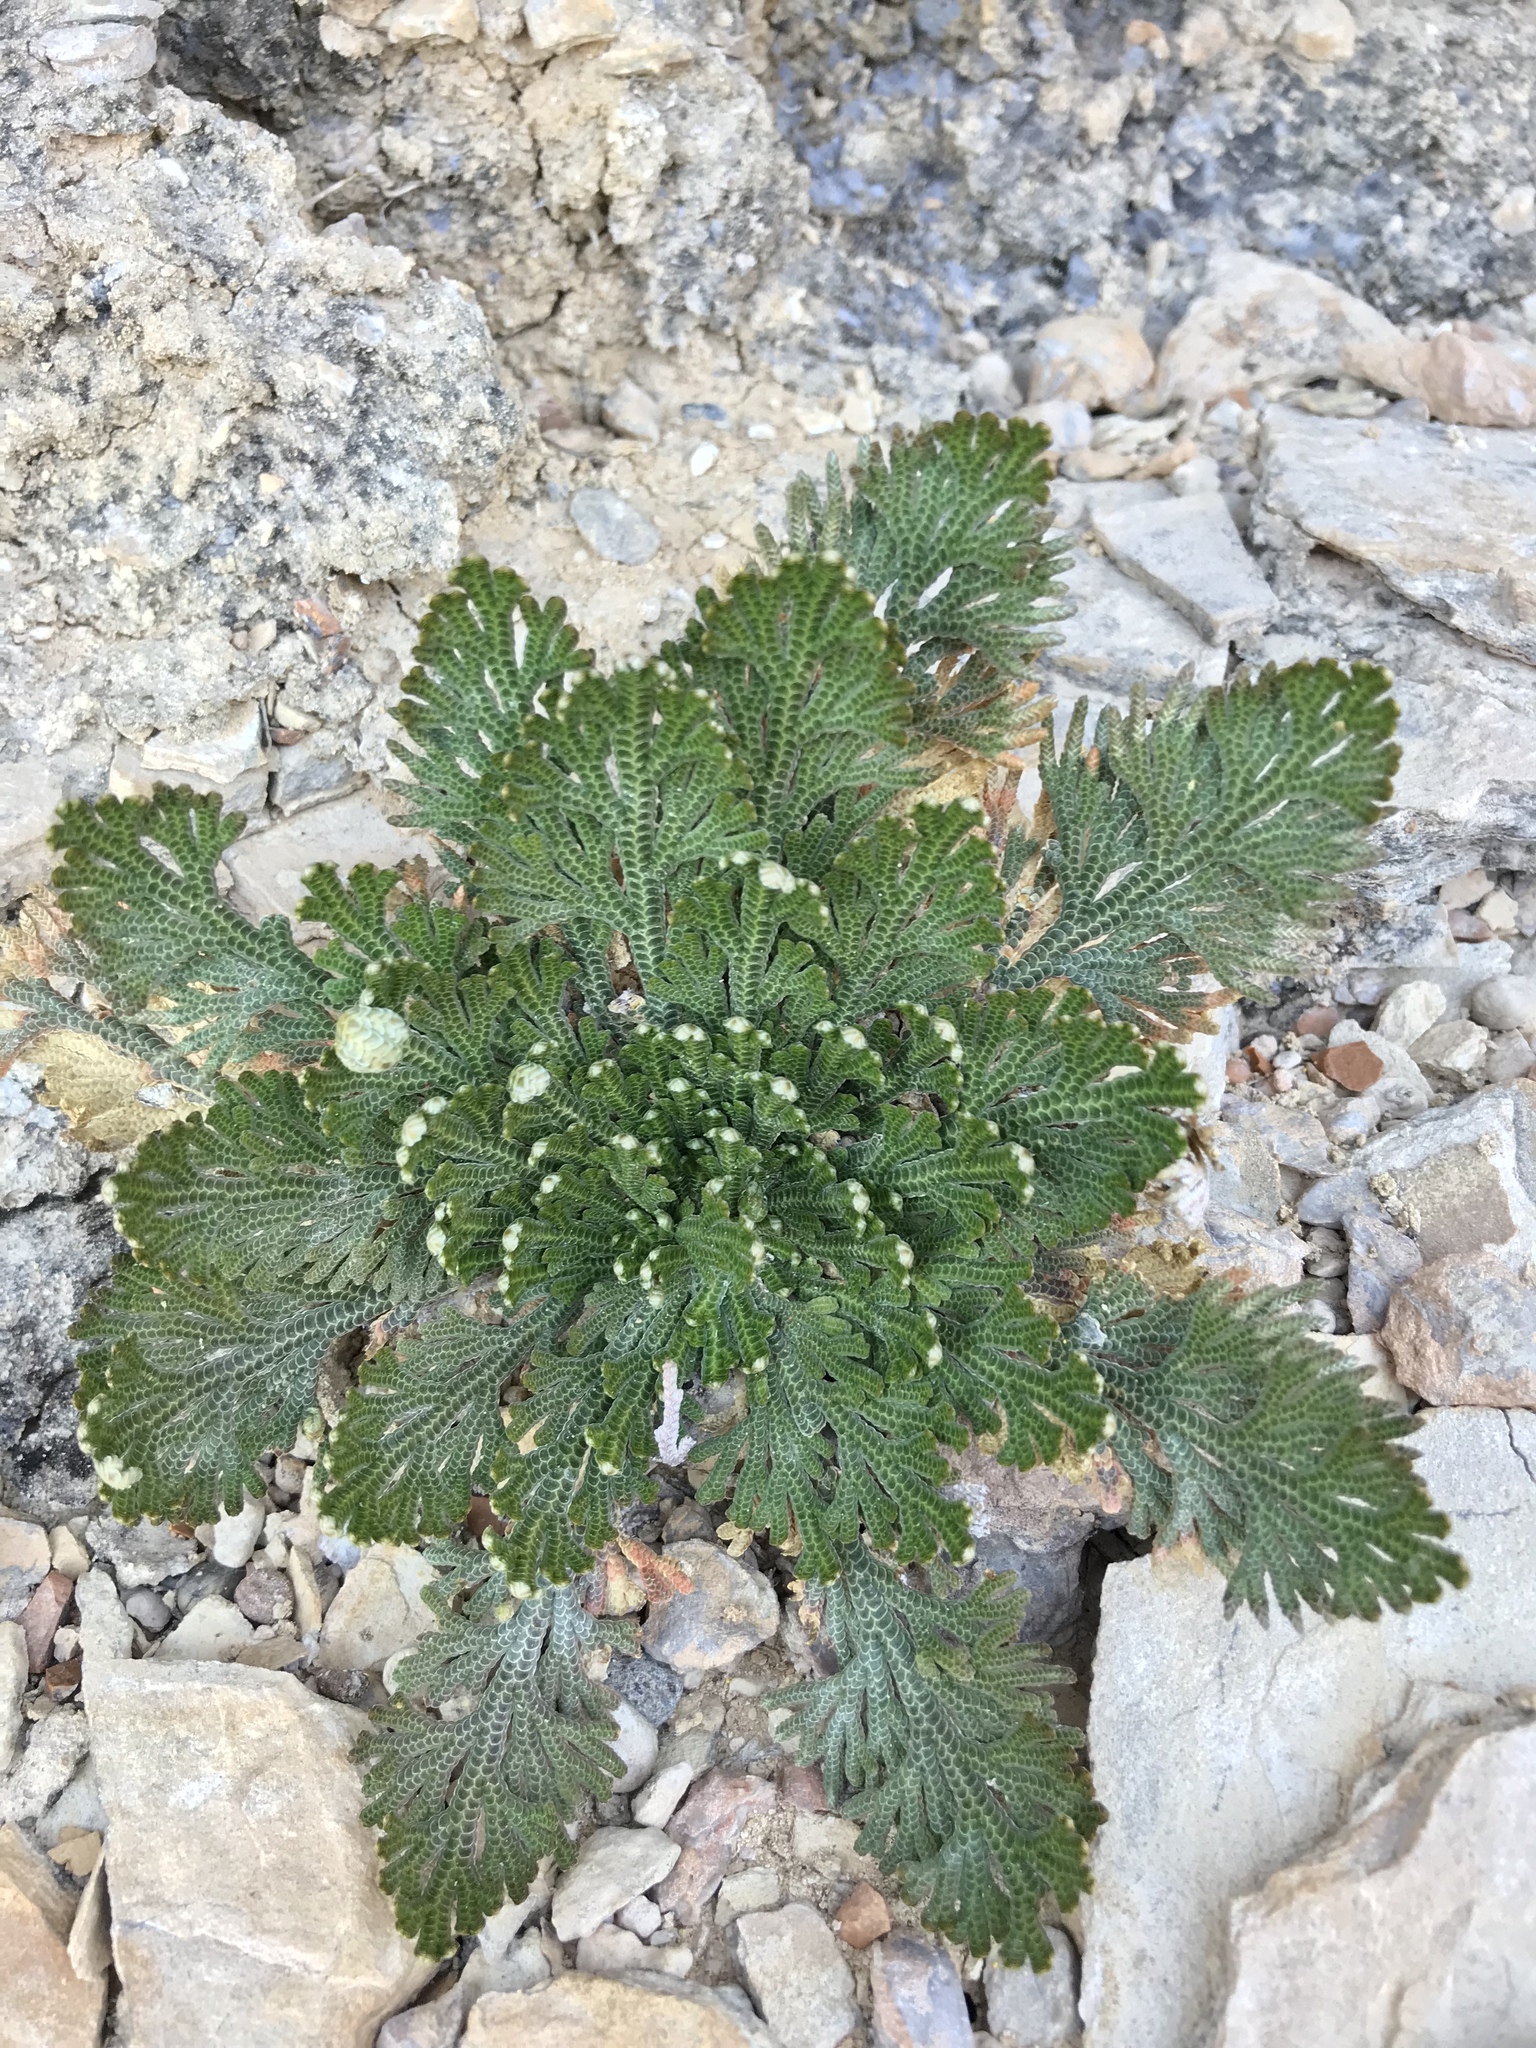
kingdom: Plantae
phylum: Tracheophyta
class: Lycopodiopsida
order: Selaginellales
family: Selaginellaceae
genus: Selaginella
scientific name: Selaginella lepidophylla
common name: Rose-of-jericho
